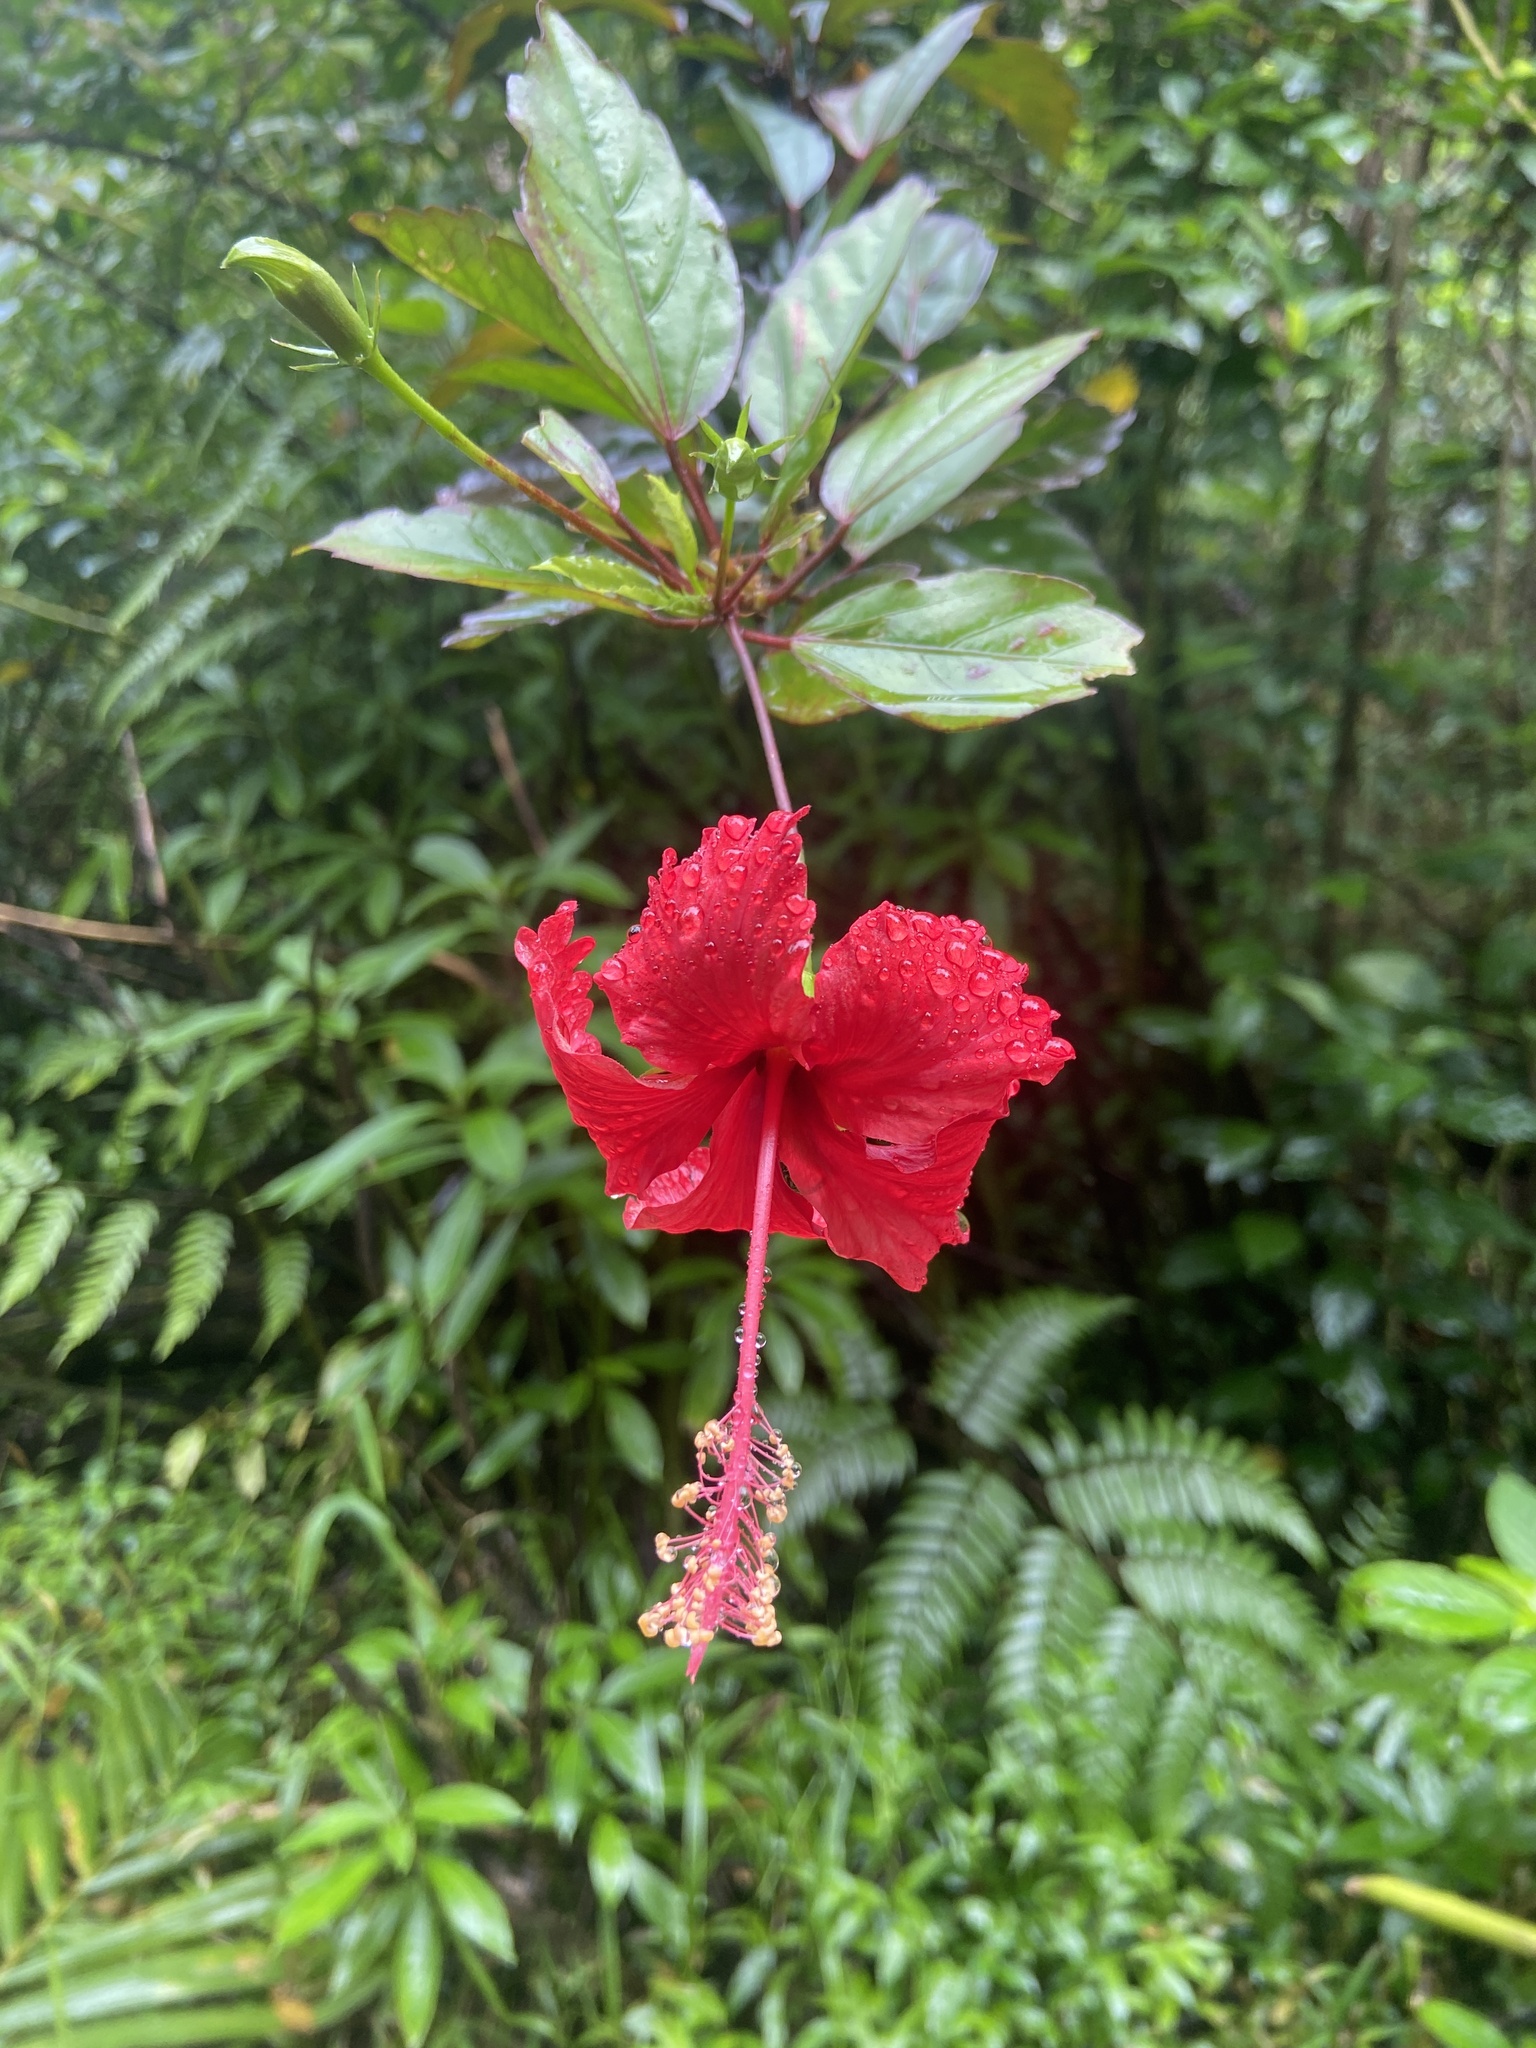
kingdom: Plantae
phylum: Tracheophyta
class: Magnoliopsida
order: Malvales
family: Malvaceae
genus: Hibiscus
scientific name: Hibiscus archeri
